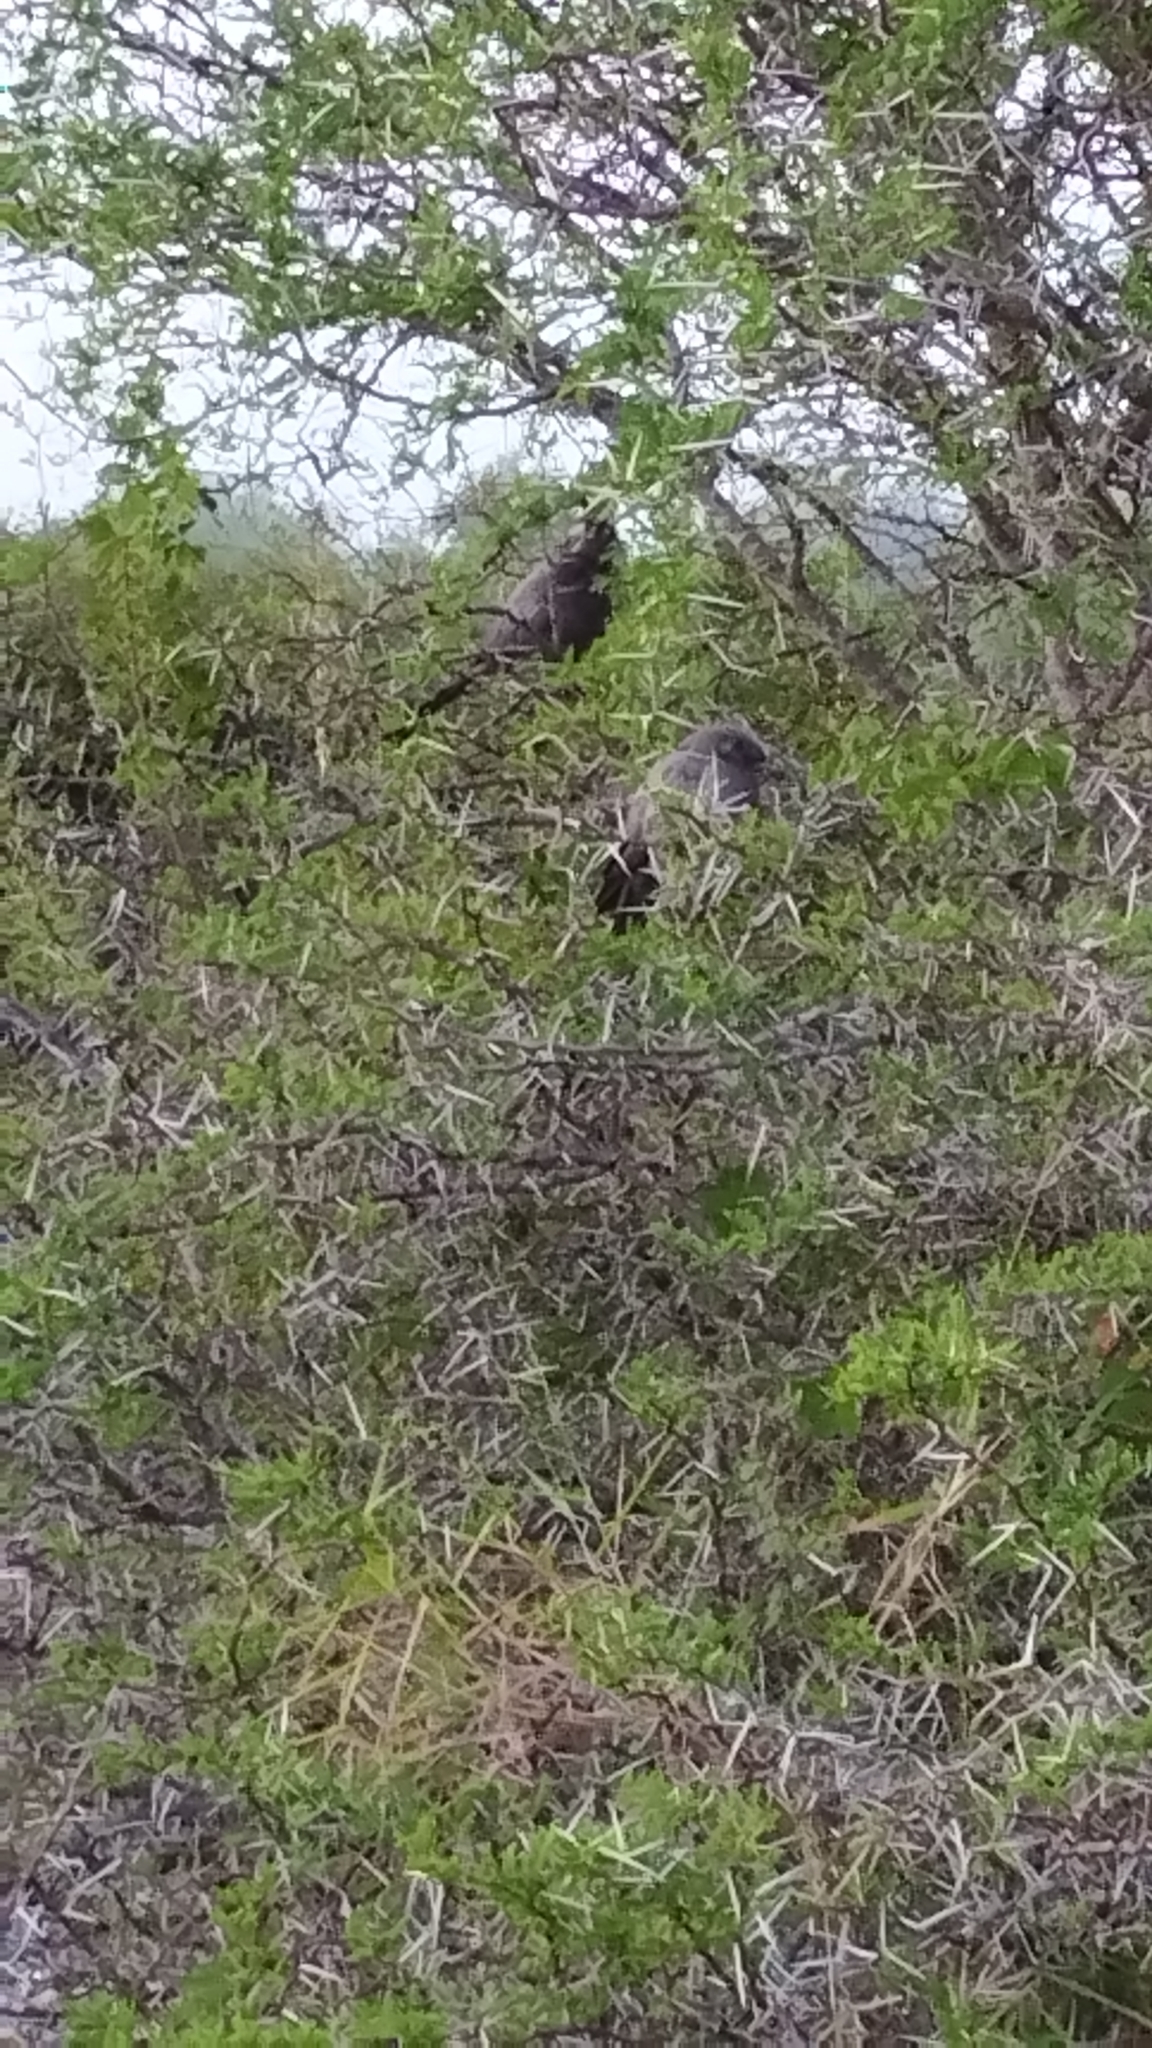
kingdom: Animalia
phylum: Chordata
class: Aves
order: Musophagiformes
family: Musophagidae
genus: Corythaixoides
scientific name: Corythaixoides concolor
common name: Grey go-away-bird
